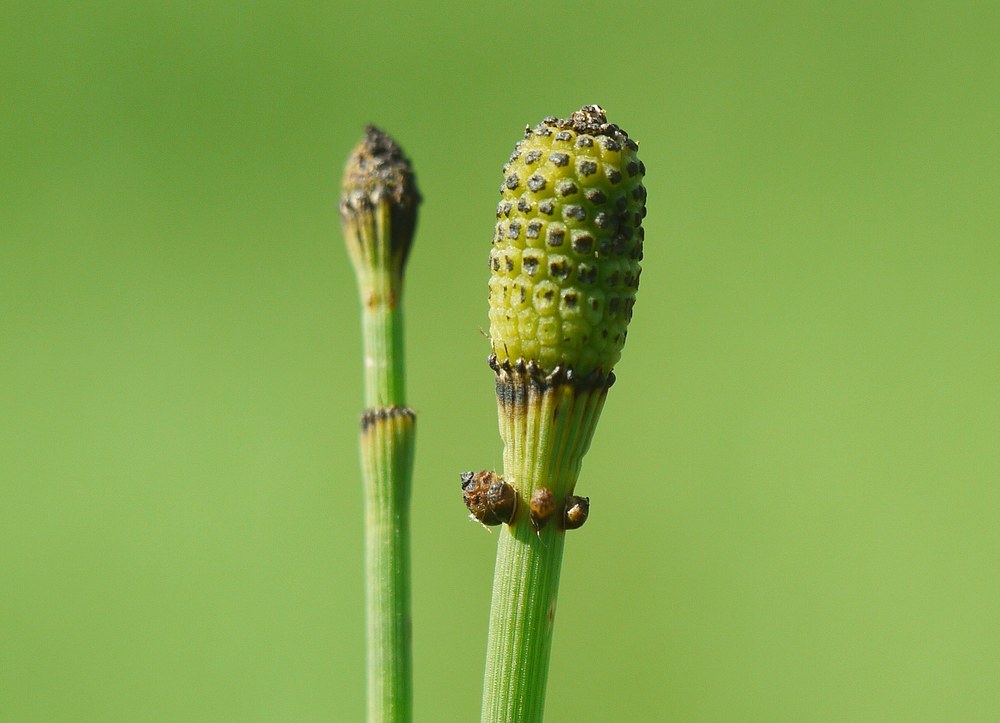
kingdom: Plantae
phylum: Tracheophyta
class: Polypodiopsida
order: Equisetales
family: Equisetaceae
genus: Equisetum
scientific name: Equisetum ramosissimum
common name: Branched horsetail
